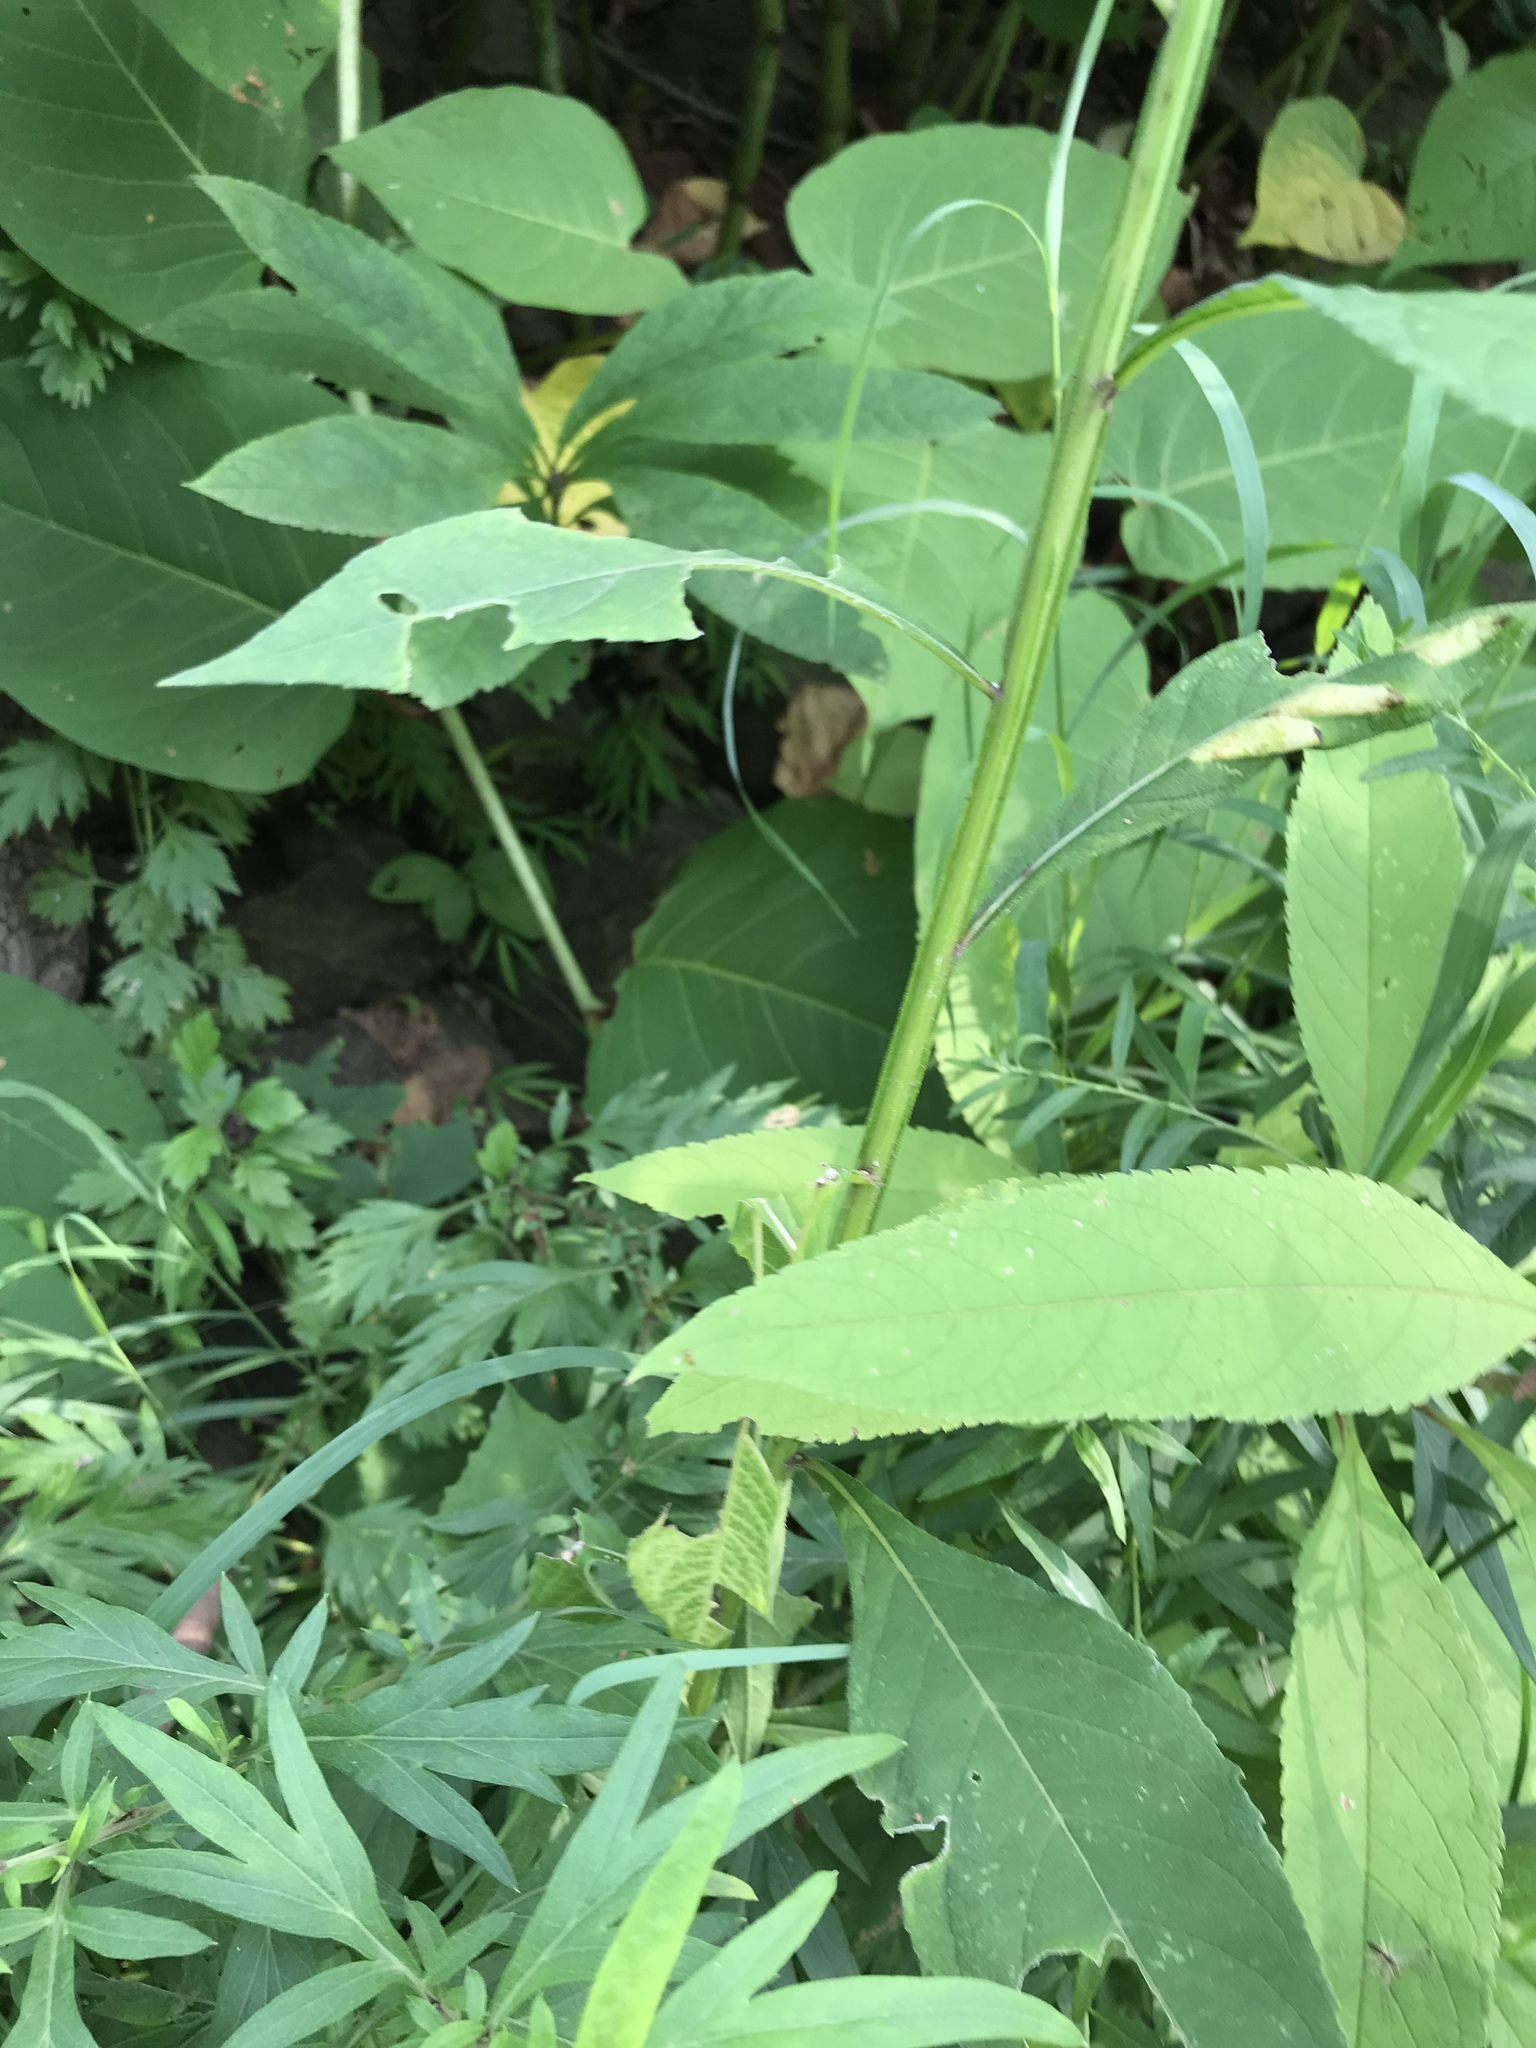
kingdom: Plantae
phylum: Tracheophyta
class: Magnoliopsida
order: Asterales
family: Asteraceae
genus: Verbesina
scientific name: Verbesina alternifolia
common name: Wingstem
